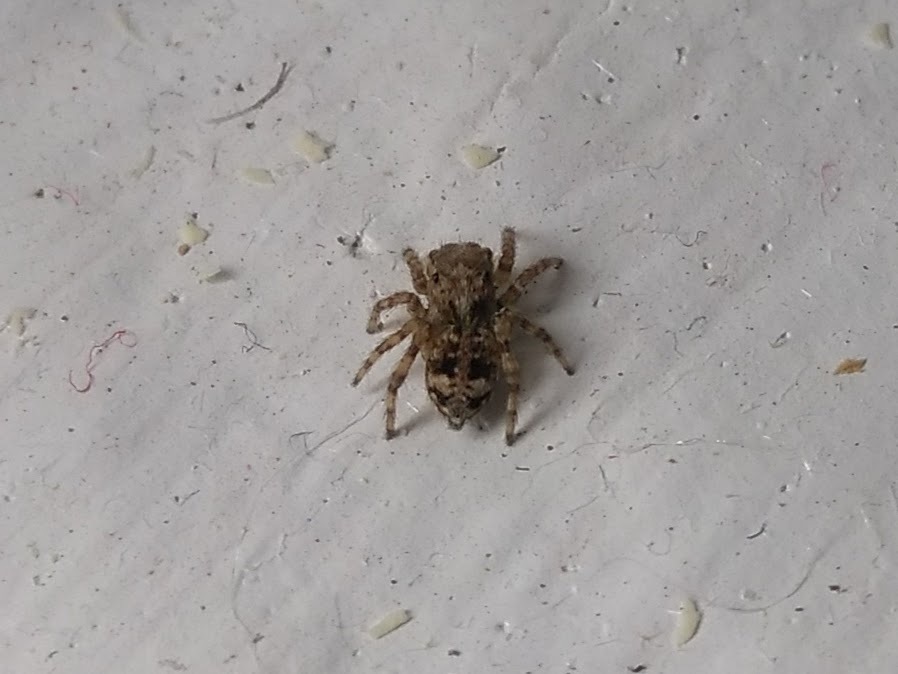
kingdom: Animalia
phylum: Arthropoda
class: Arachnida
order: Araneae
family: Salticidae
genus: Attulus
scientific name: Attulus fasciger
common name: Asiatic wall jumping spider
